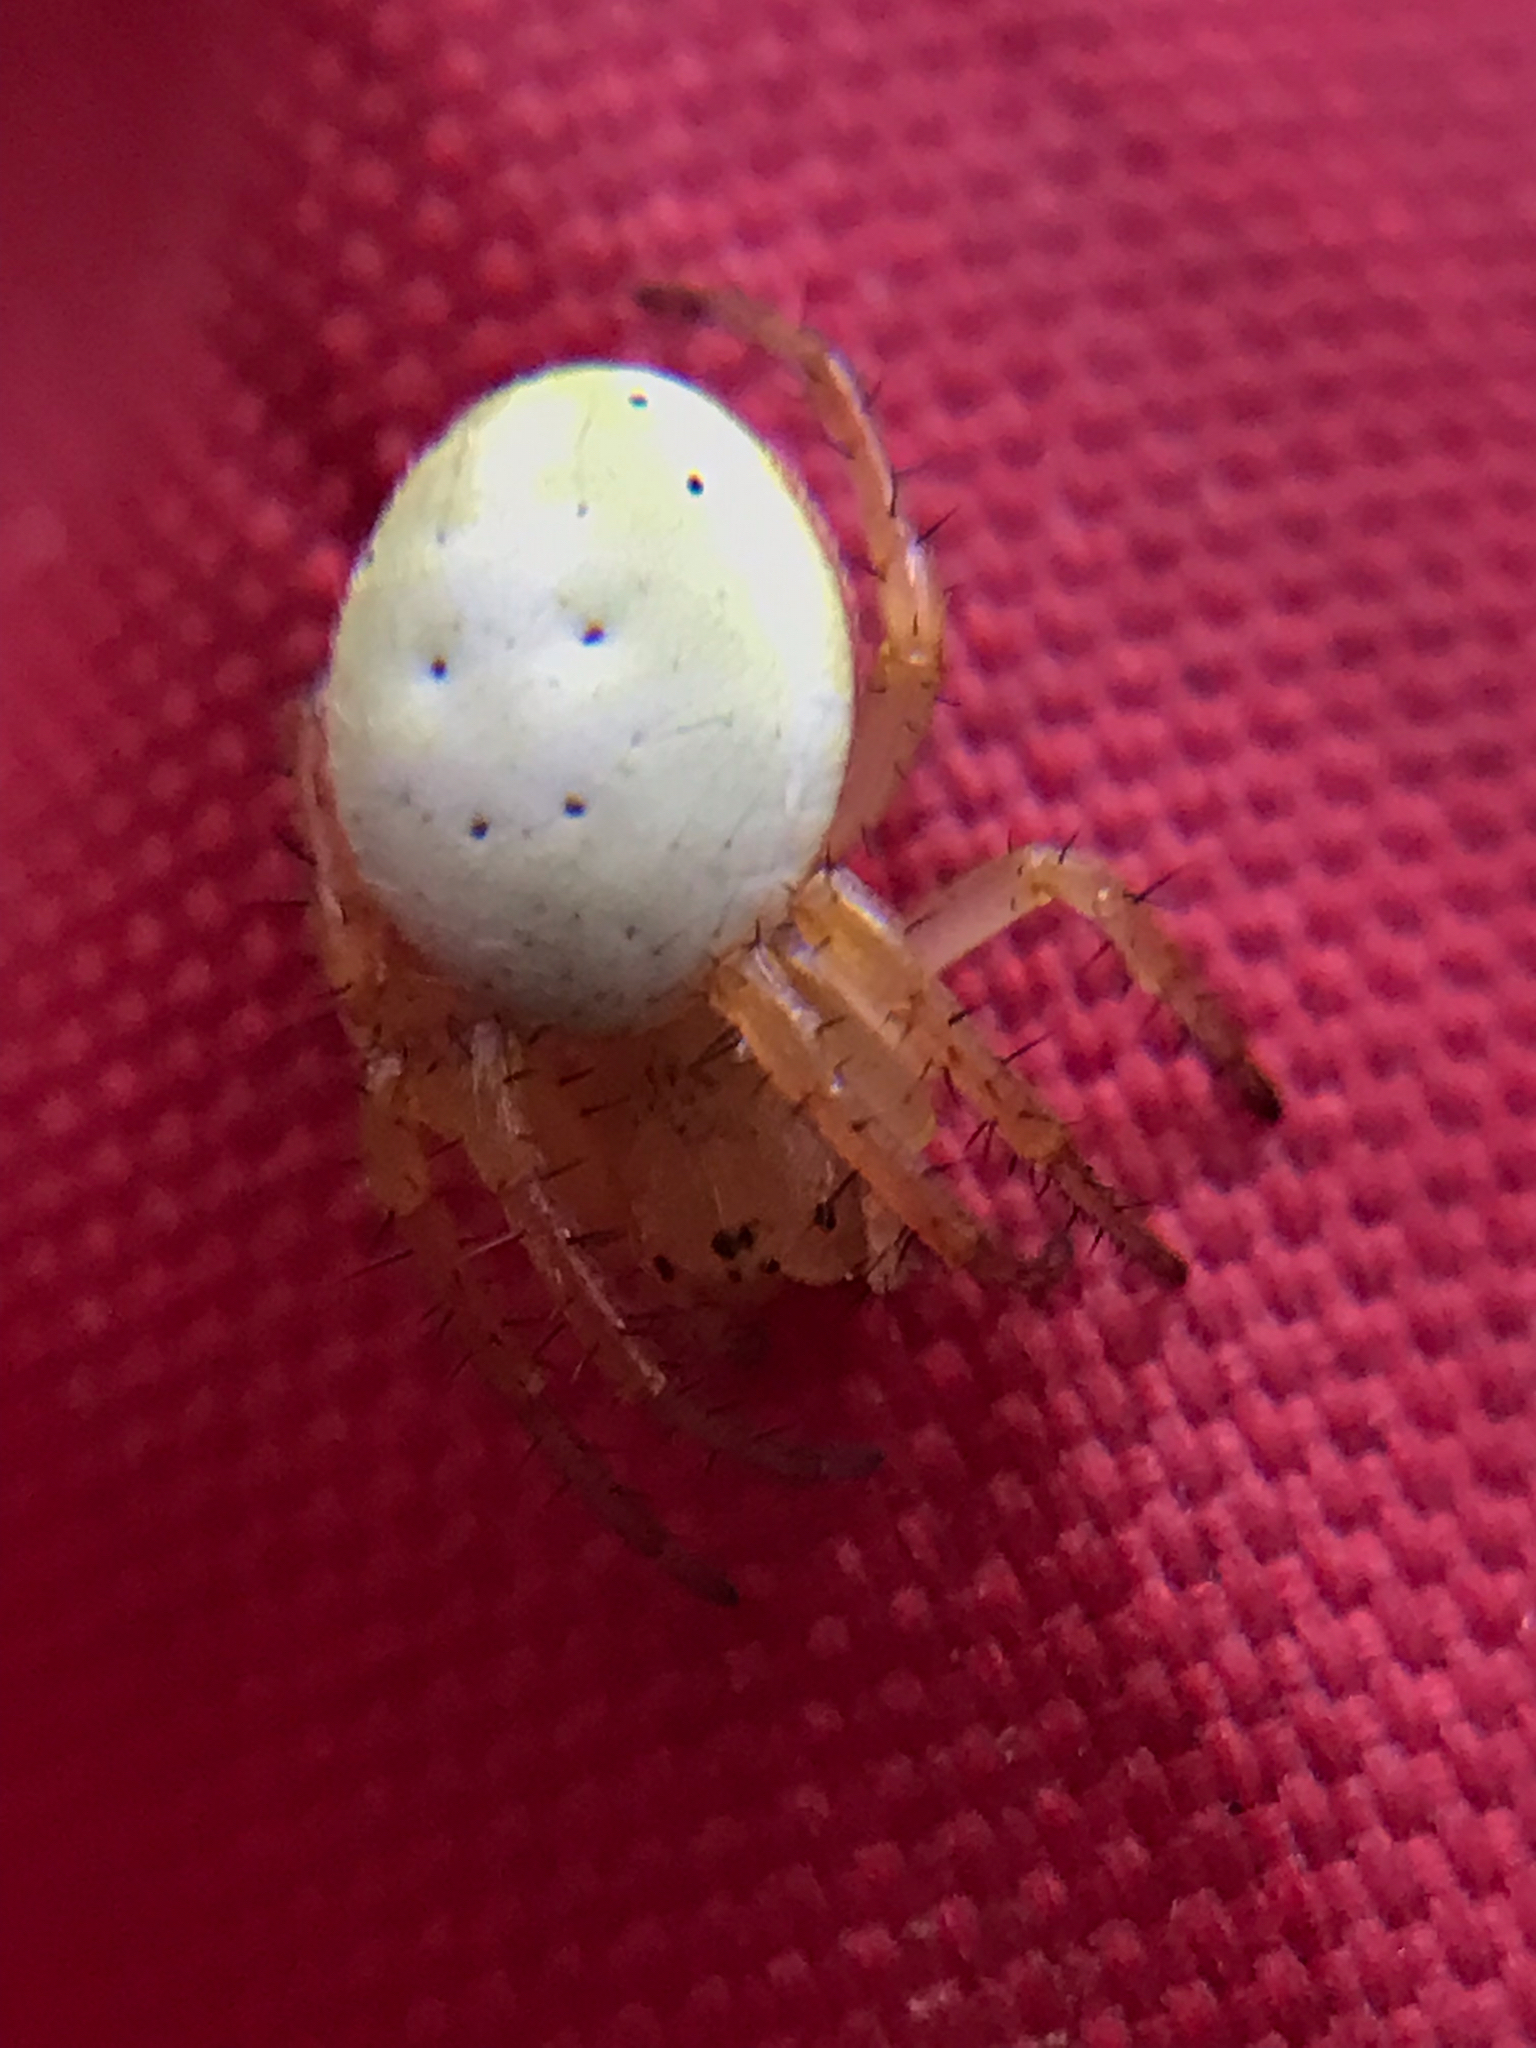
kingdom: Animalia
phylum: Arthropoda
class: Arachnida
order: Araneae
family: Araneidae
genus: Araniella
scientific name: Araniella displicata
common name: Sixspotted orb weaver
